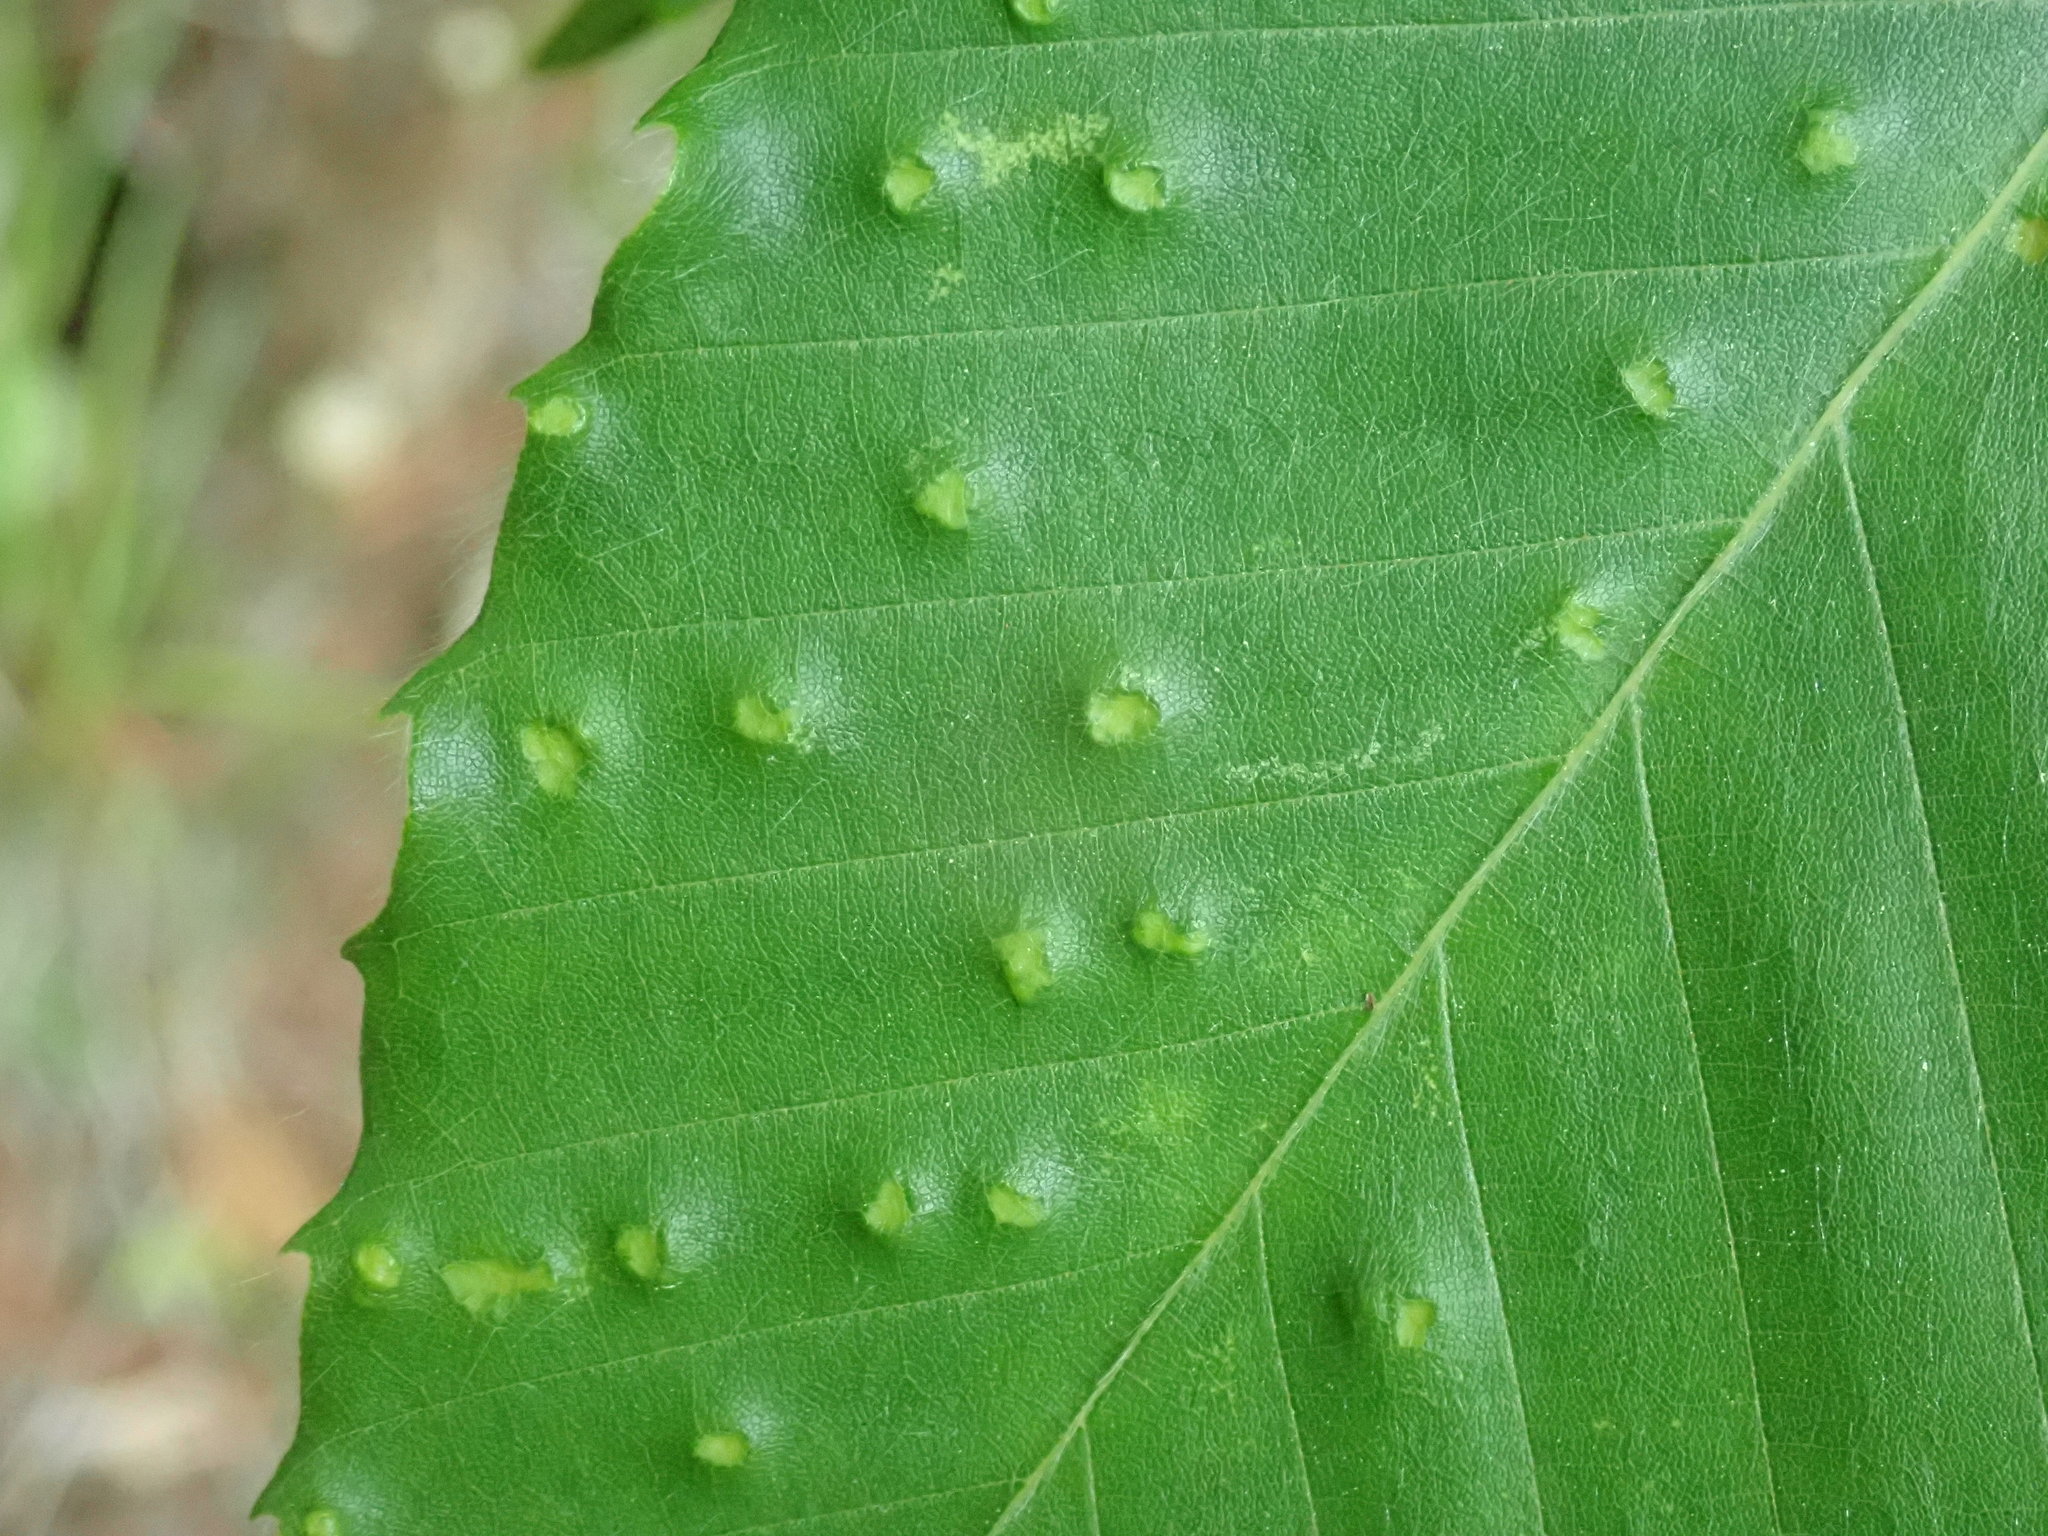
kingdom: Animalia
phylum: Arthropoda
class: Arachnida
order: Trombidiformes
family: Eriophyidae
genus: Acalitus
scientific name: Acalitus
